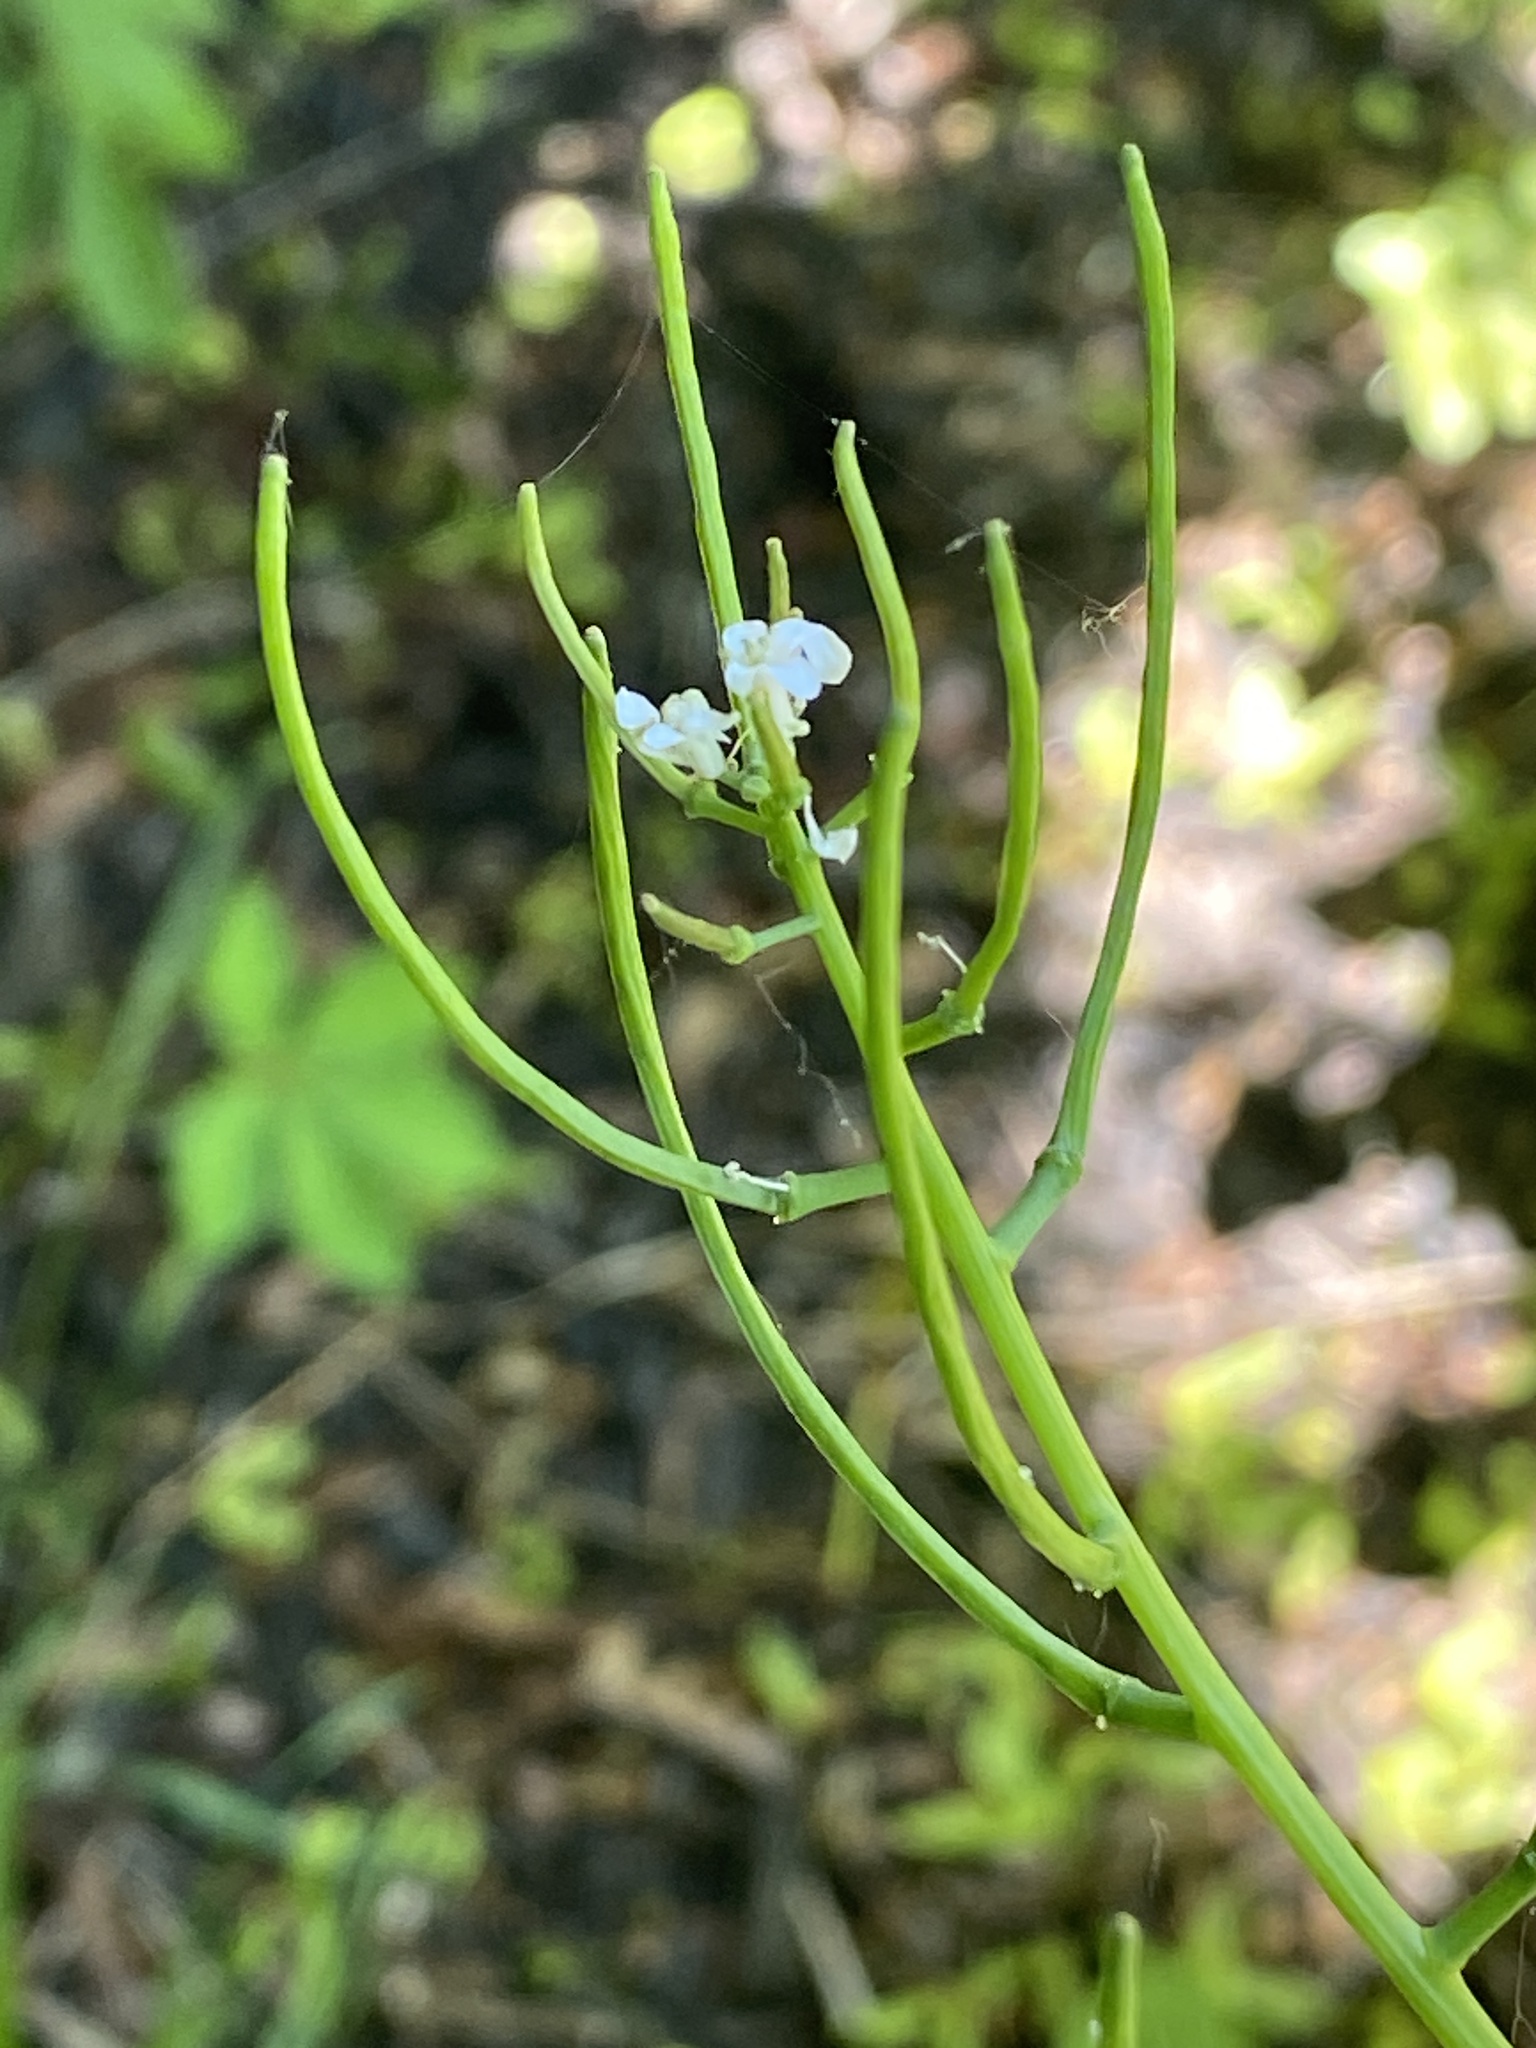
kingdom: Plantae
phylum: Tracheophyta
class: Magnoliopsida
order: Brassicales
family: Brassicaceae
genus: Alliaria
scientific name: Alliaria petiolata
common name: Garlic mustard
